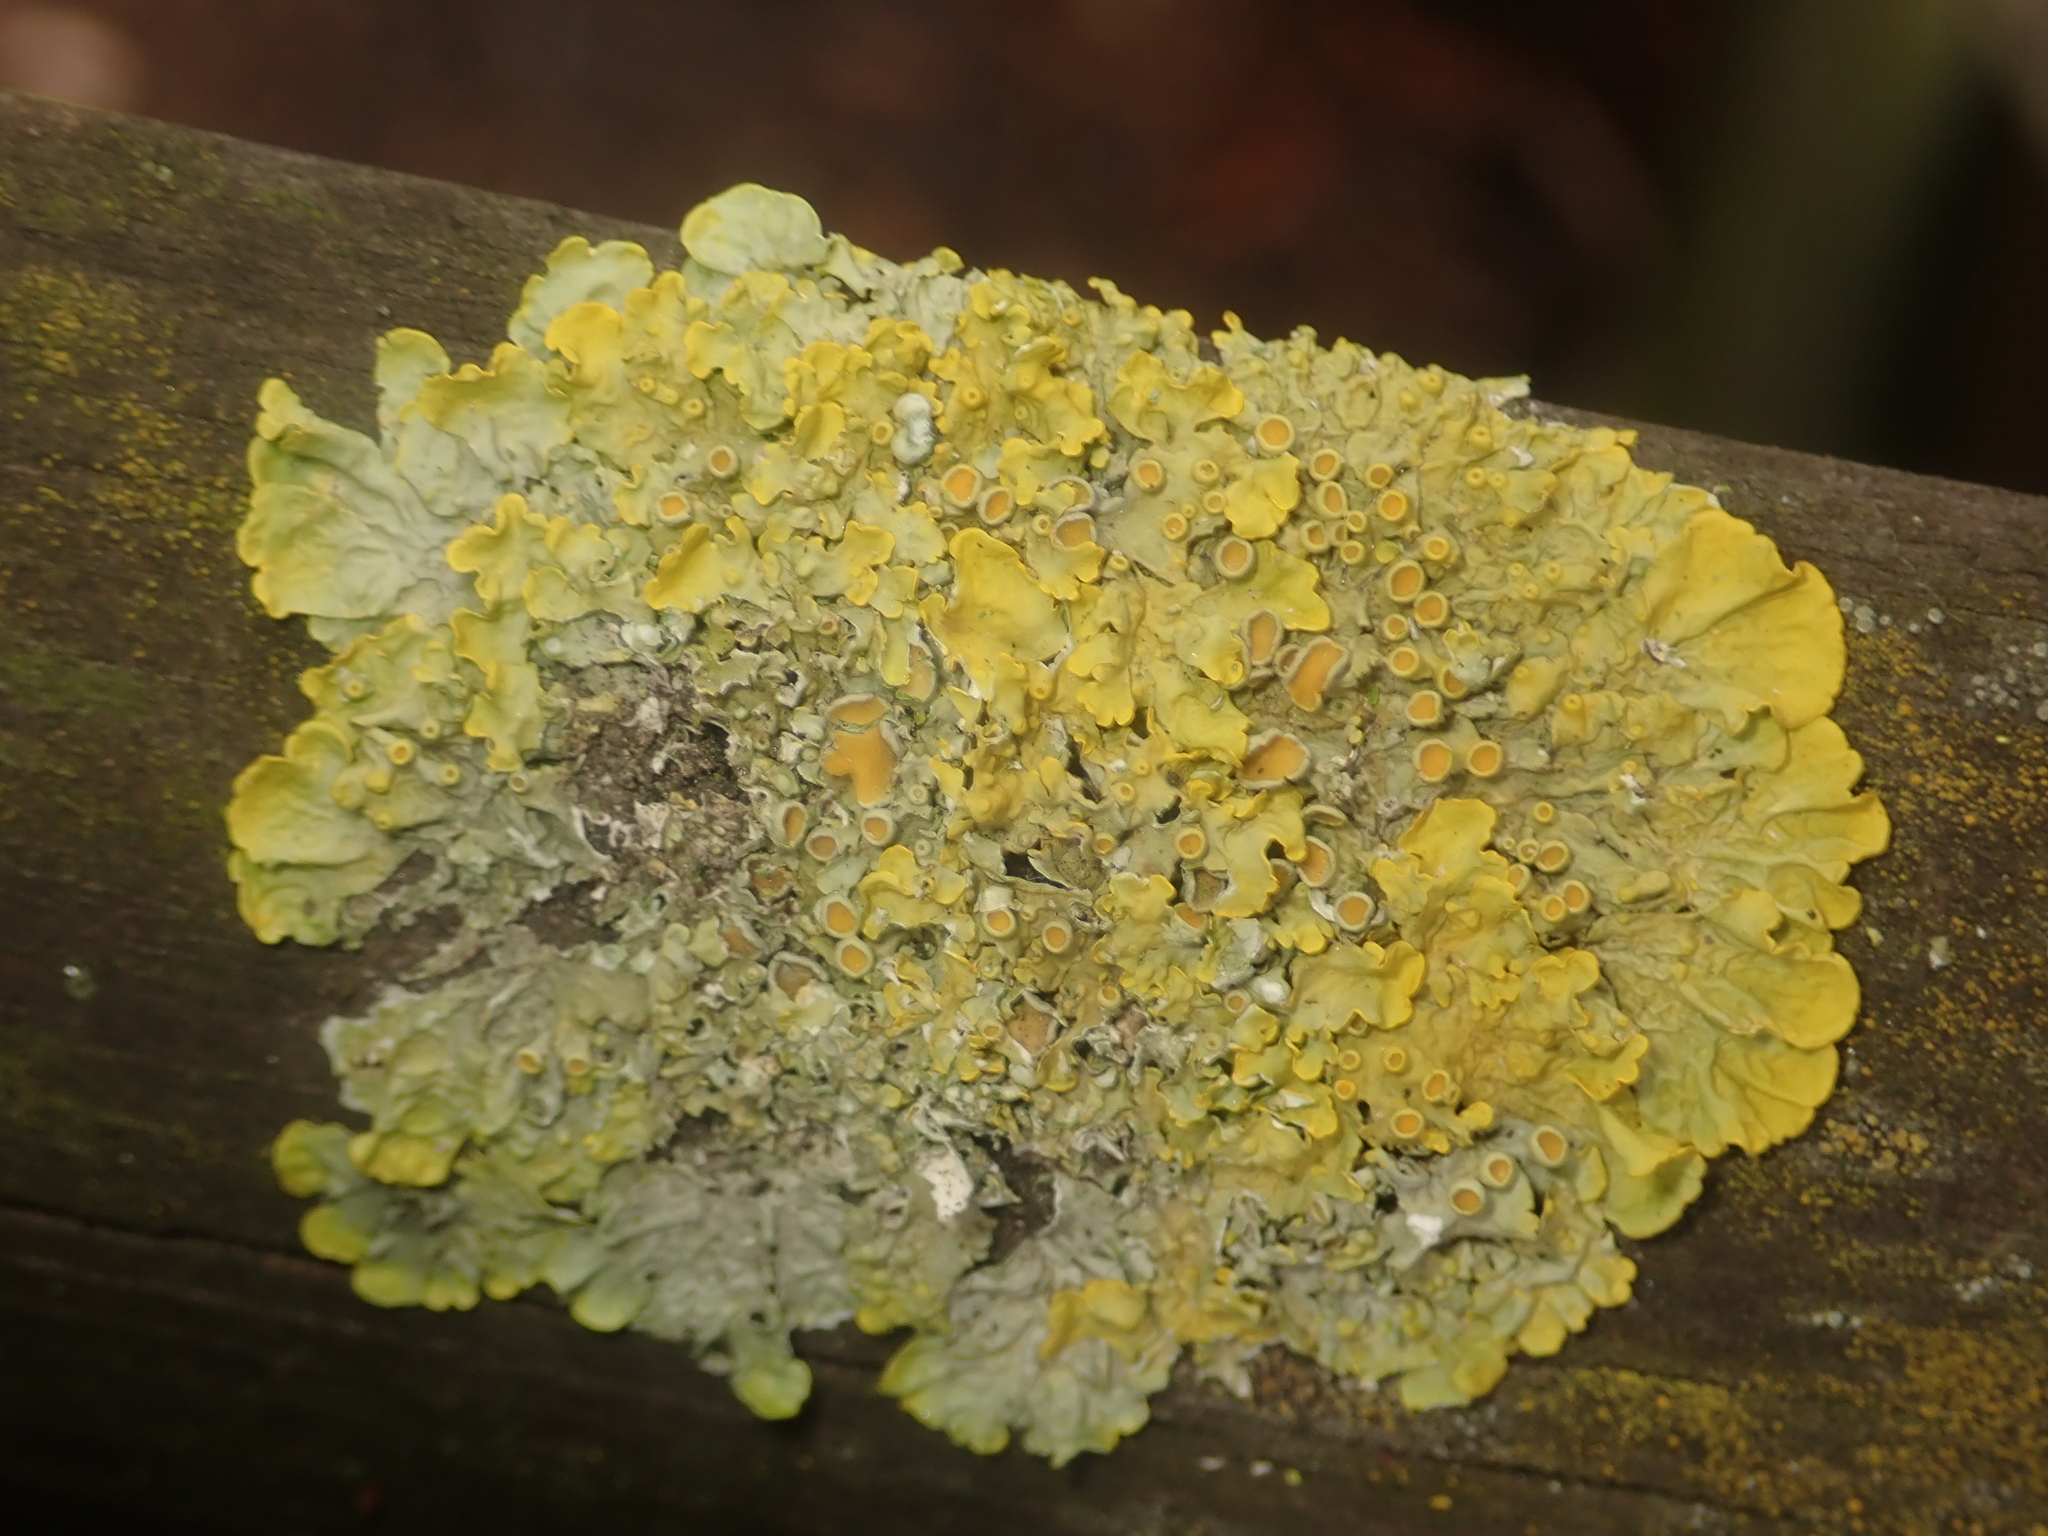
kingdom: Fungi
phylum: Ascomycota
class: Lecanoromycetes
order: Teloschistales
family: Teloschistaceae
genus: Xanthoria
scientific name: Xanthoria parietina
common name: Common orange lichen
